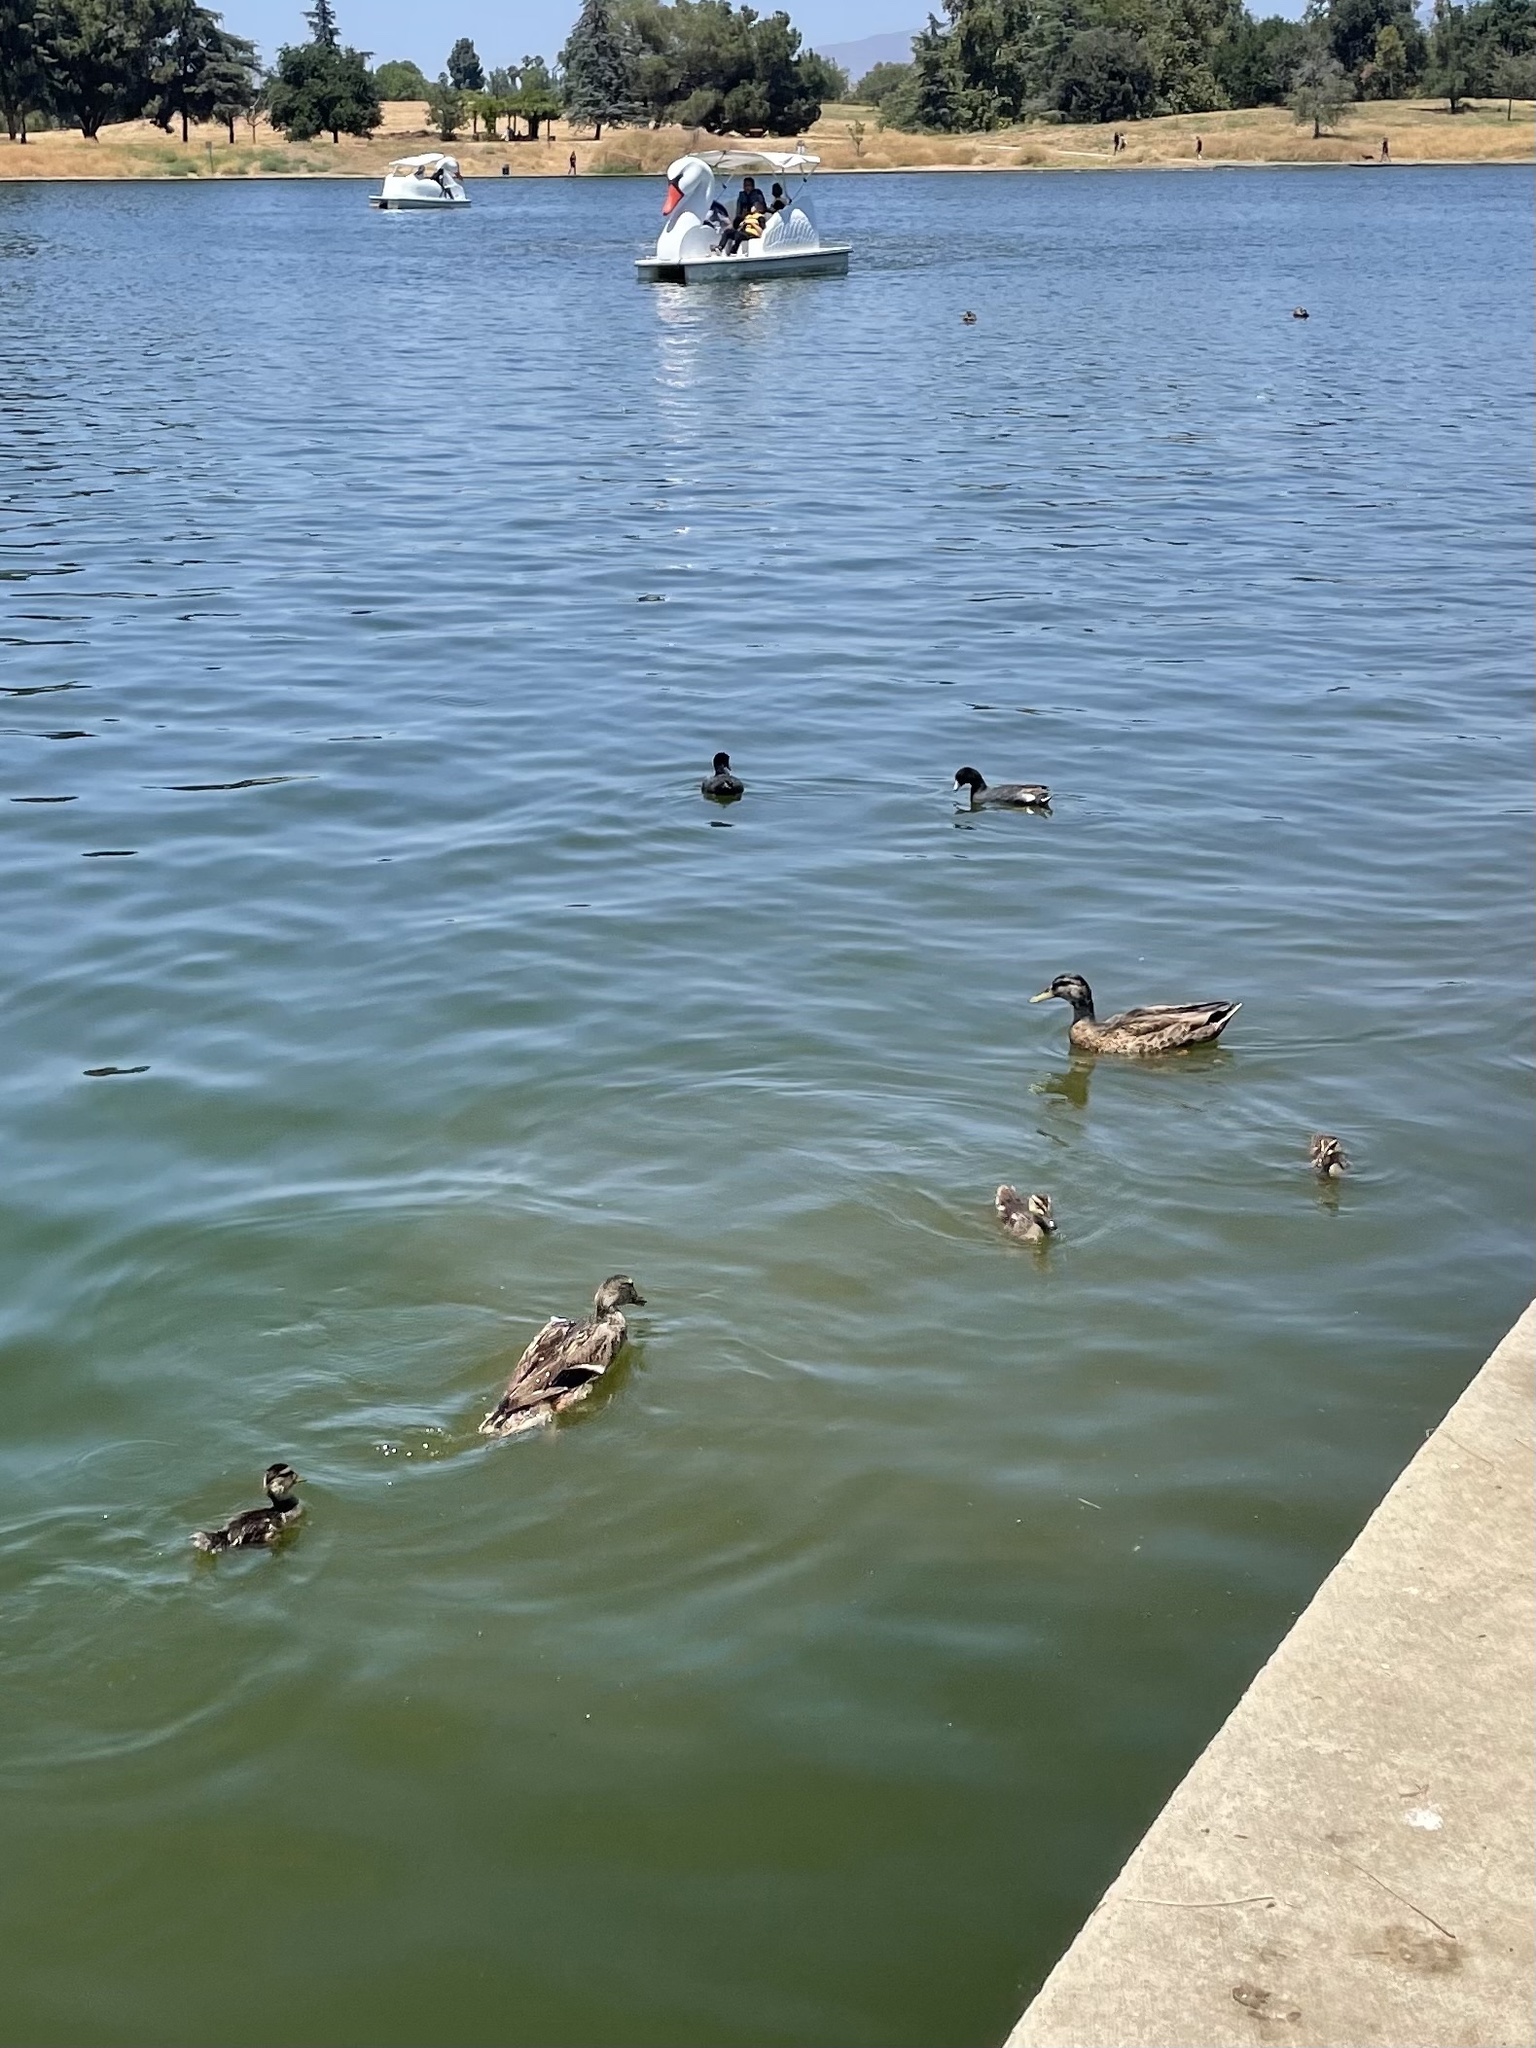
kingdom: Animalia
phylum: Chordata
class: Aves
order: Anseriformes
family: Anatidae
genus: Anas
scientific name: Anas platyrhynchos
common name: Mallard
